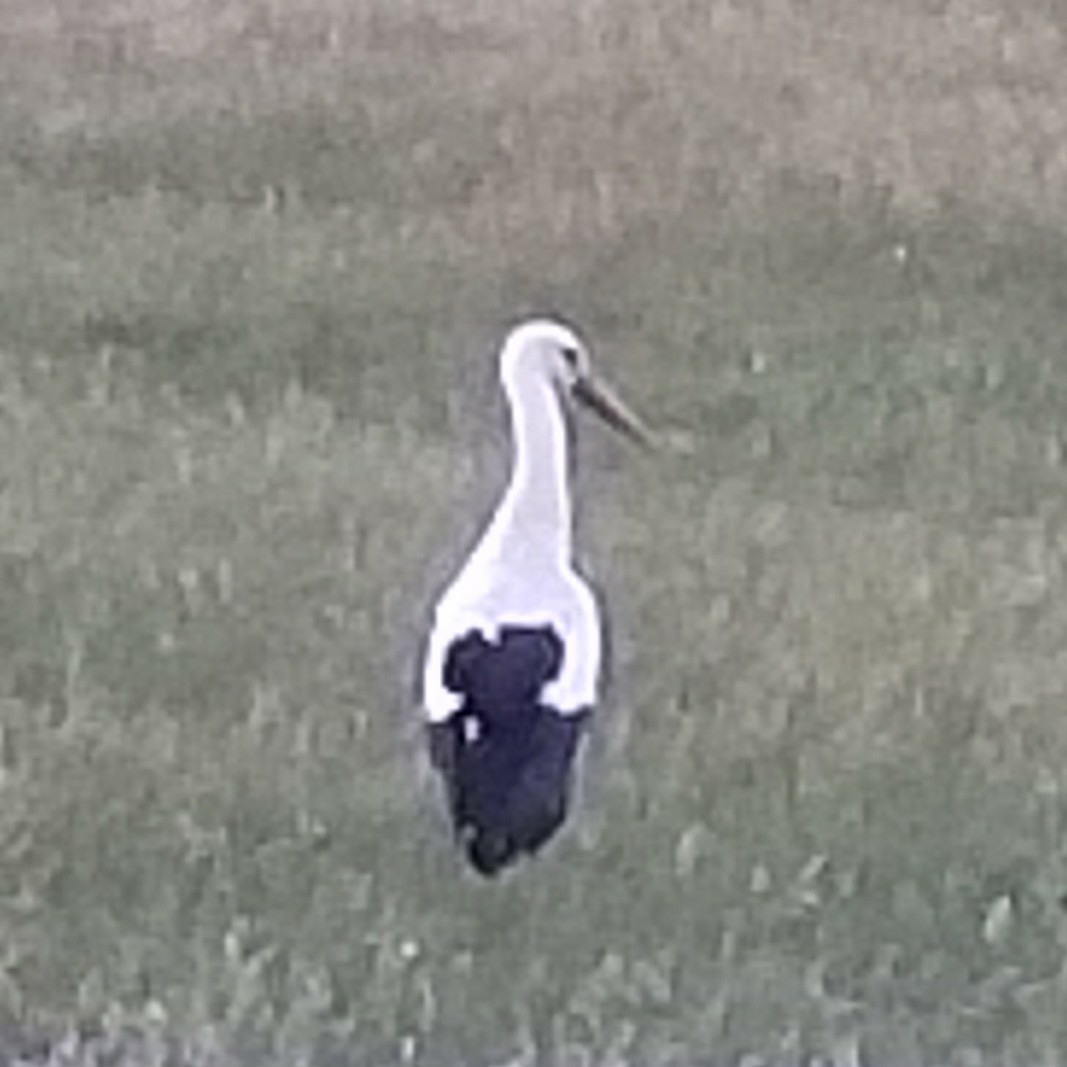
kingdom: Animalia
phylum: Chordata
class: Aves
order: Ciconiiformes
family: Ciconiidae
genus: Ciconia
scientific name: Ciconia ciconia
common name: White stork
